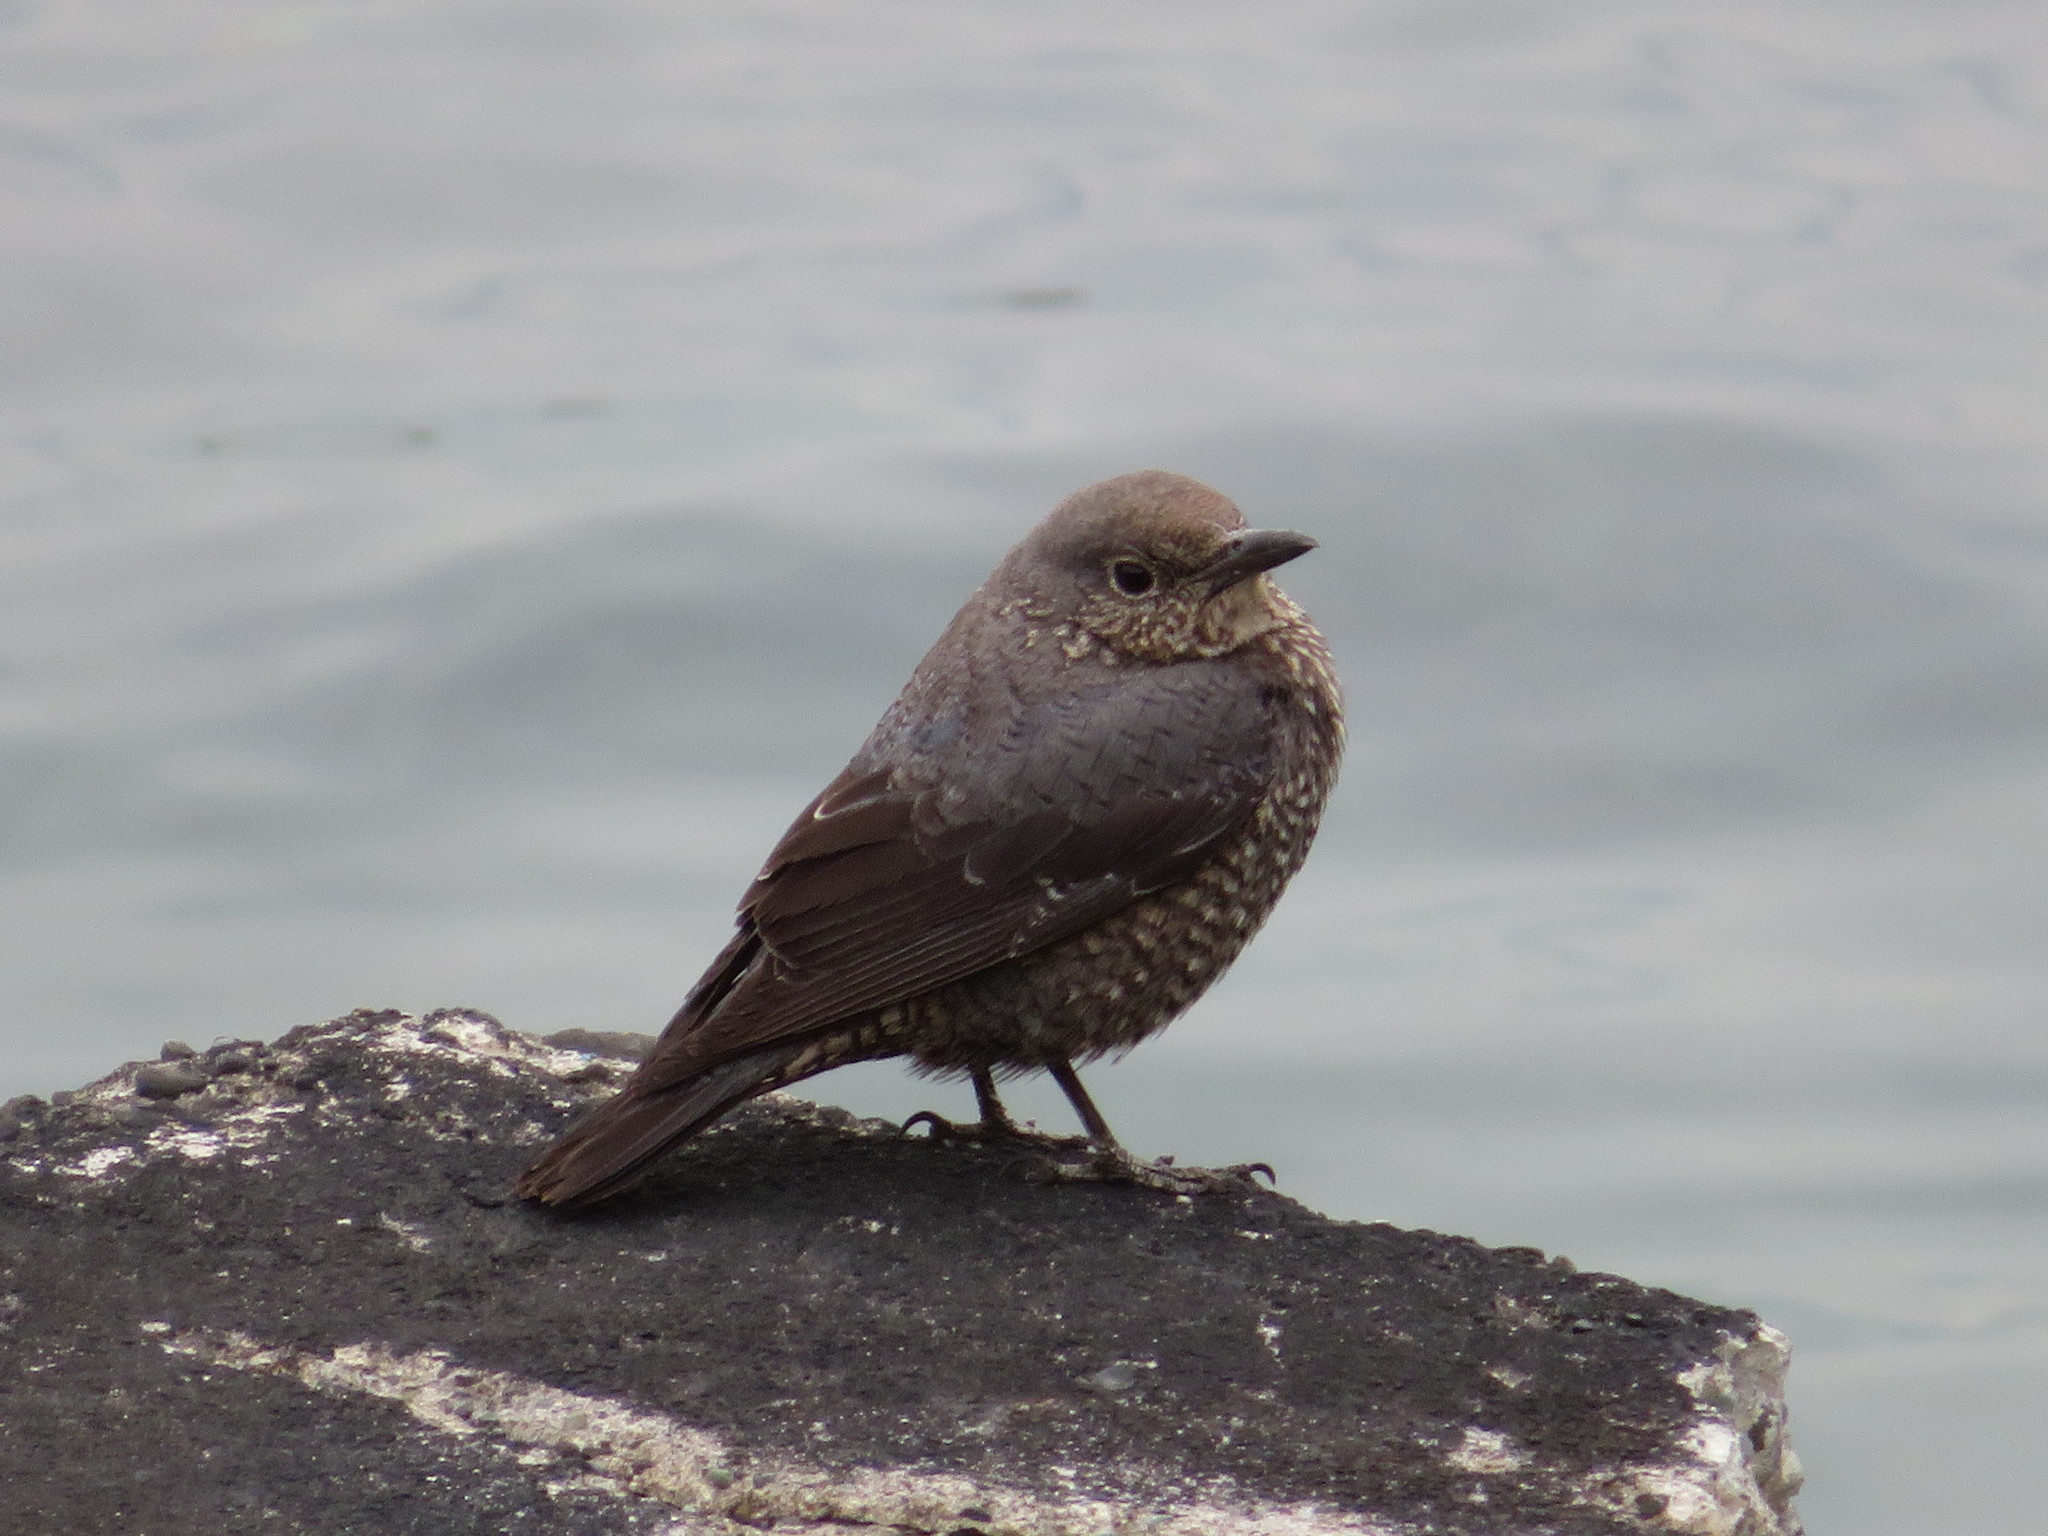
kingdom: Animalia
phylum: Chordata
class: Aves
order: Passeriformes
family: Muscicapidae
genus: Monticola
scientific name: Monticola solitarius
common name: Blue rock thrush
